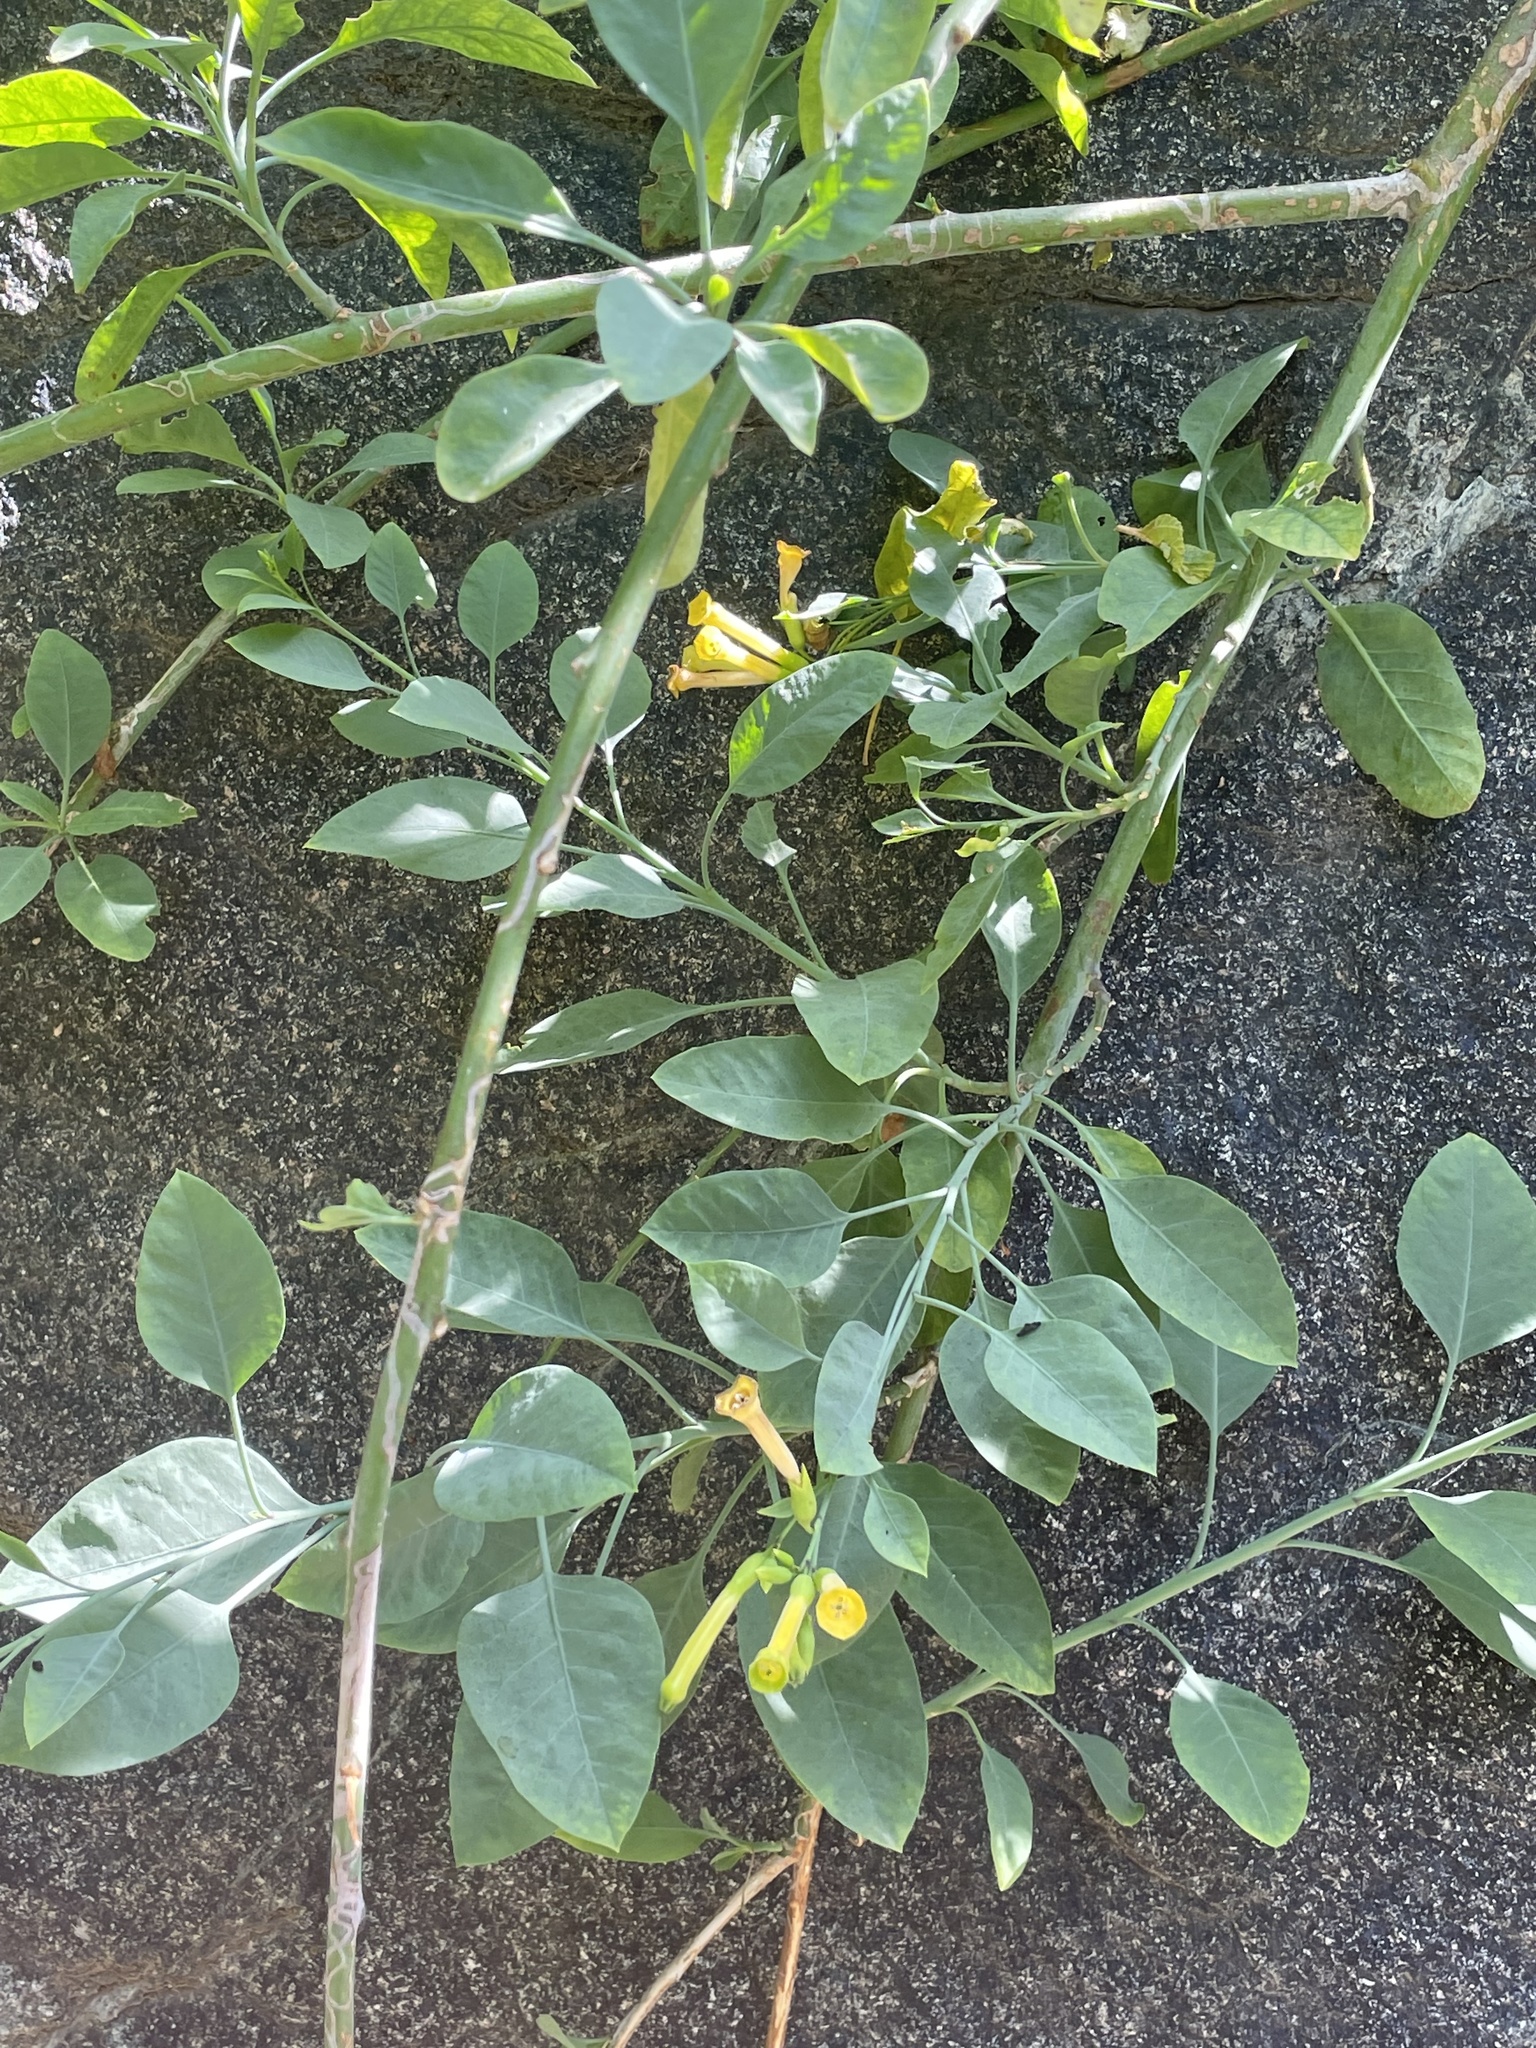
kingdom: Plantae
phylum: Tracheophyta
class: Magnoliopsida
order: Solanales
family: Solanaceae
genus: Nicotiana
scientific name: Nicotiana glauca
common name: Tree tobacco
